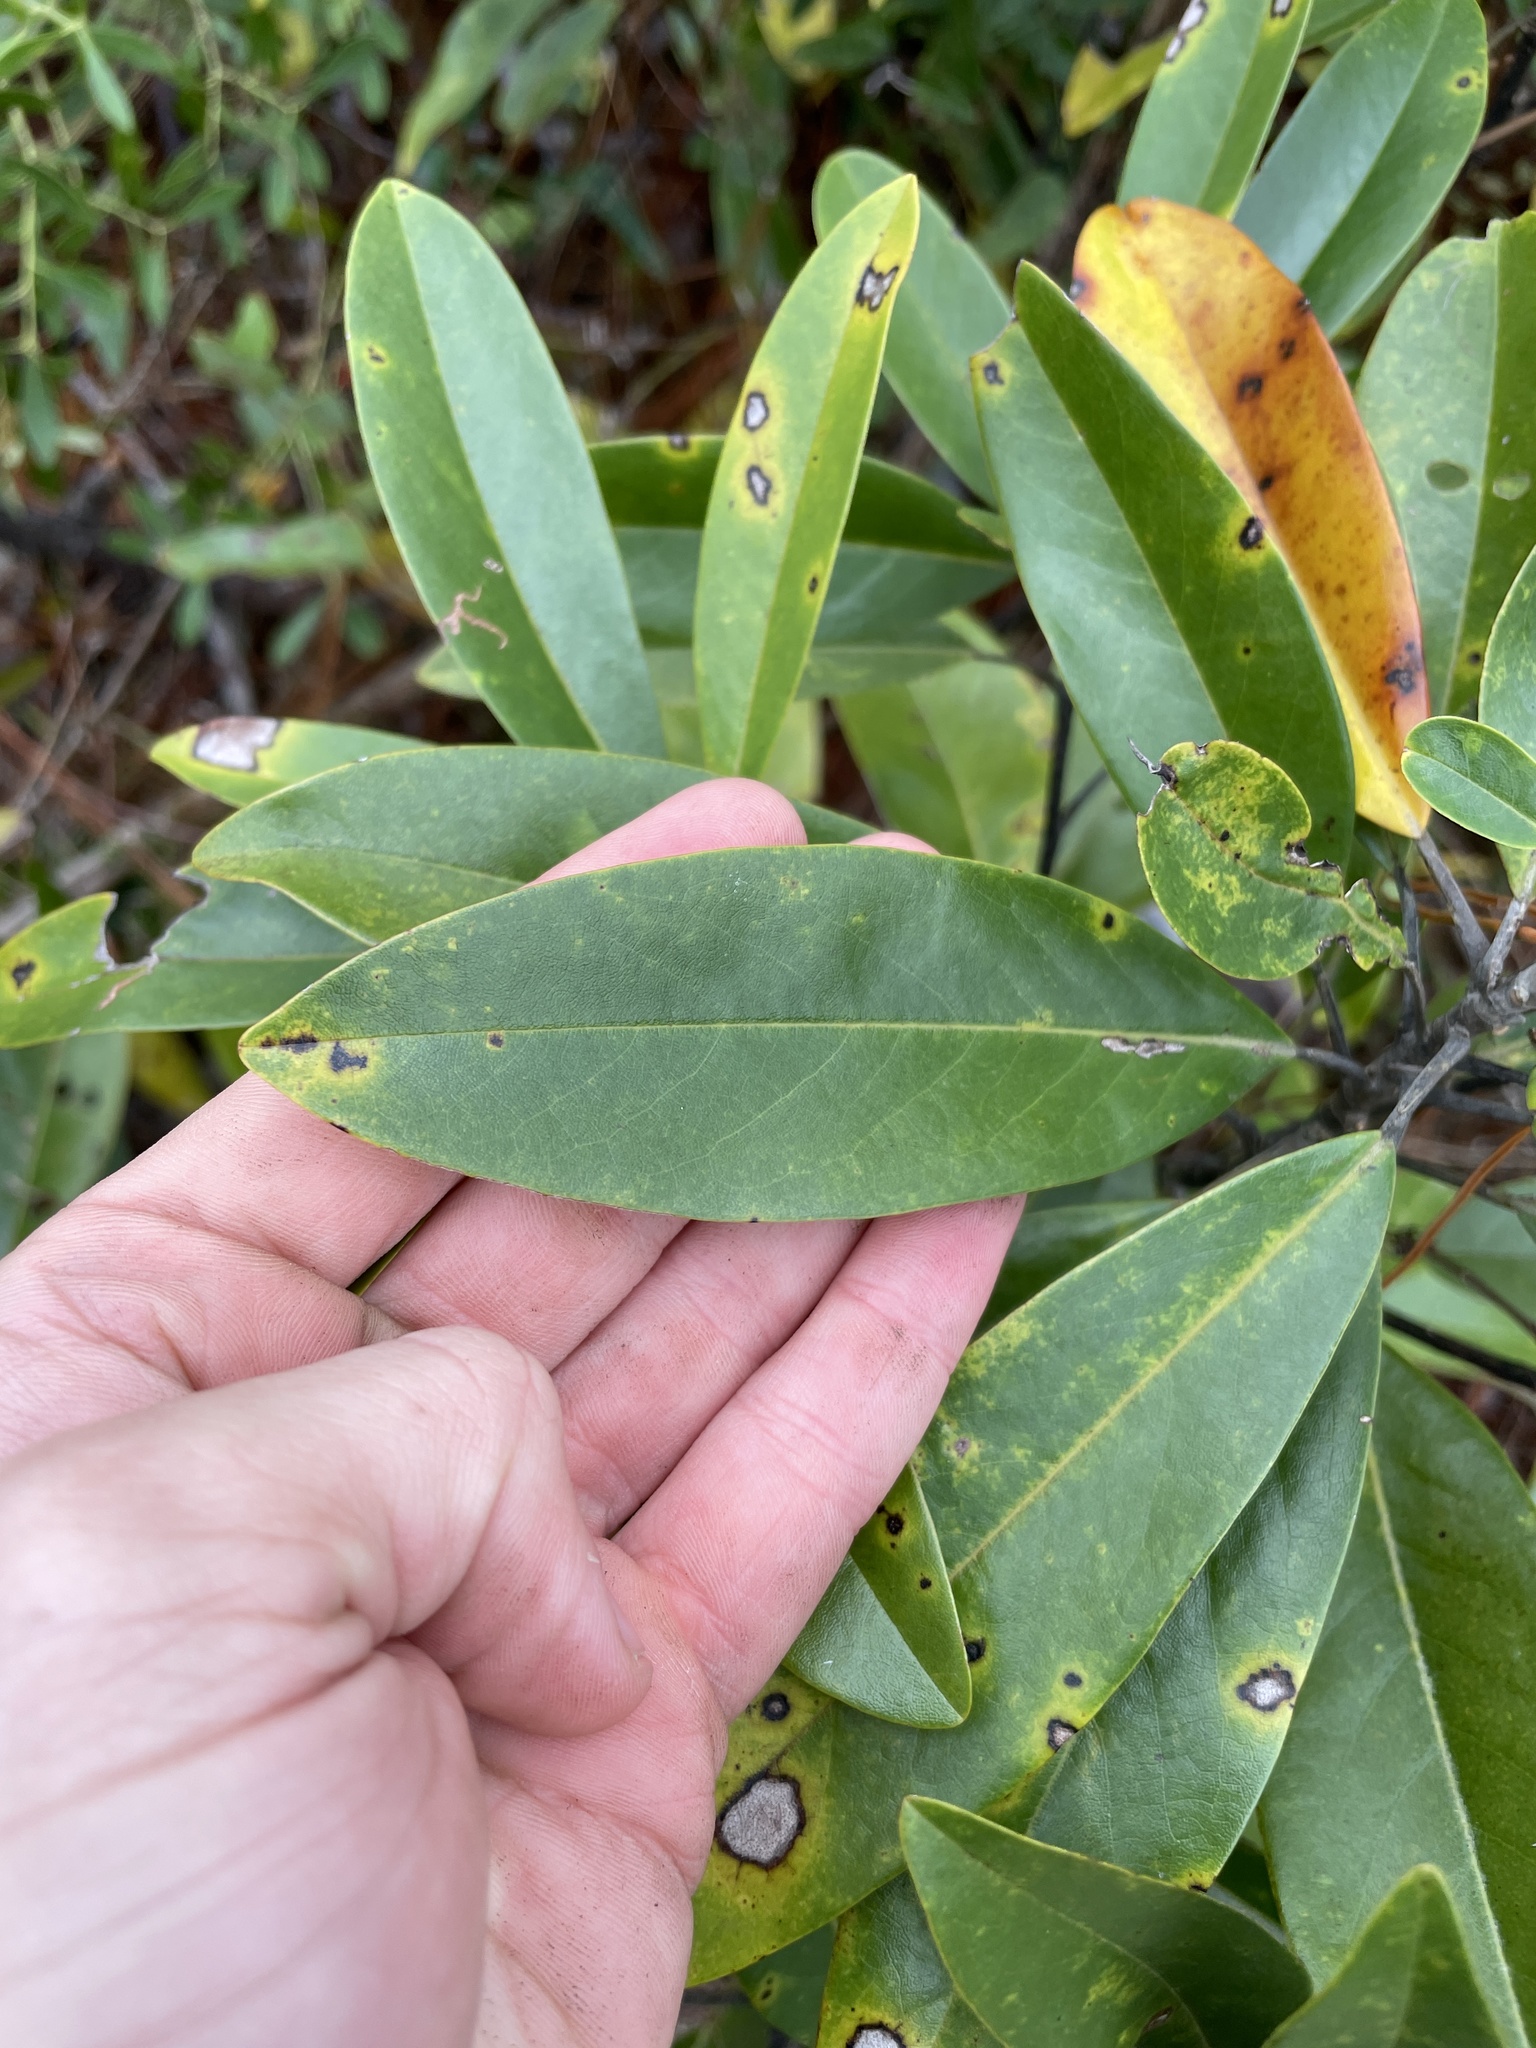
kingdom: Plantae
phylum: Tracheophyta
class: Magnoliopsida
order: Magnoliales
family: Magnoliaceae
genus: Magnolia
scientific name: Magnolia virginiana
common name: Swamp bay
